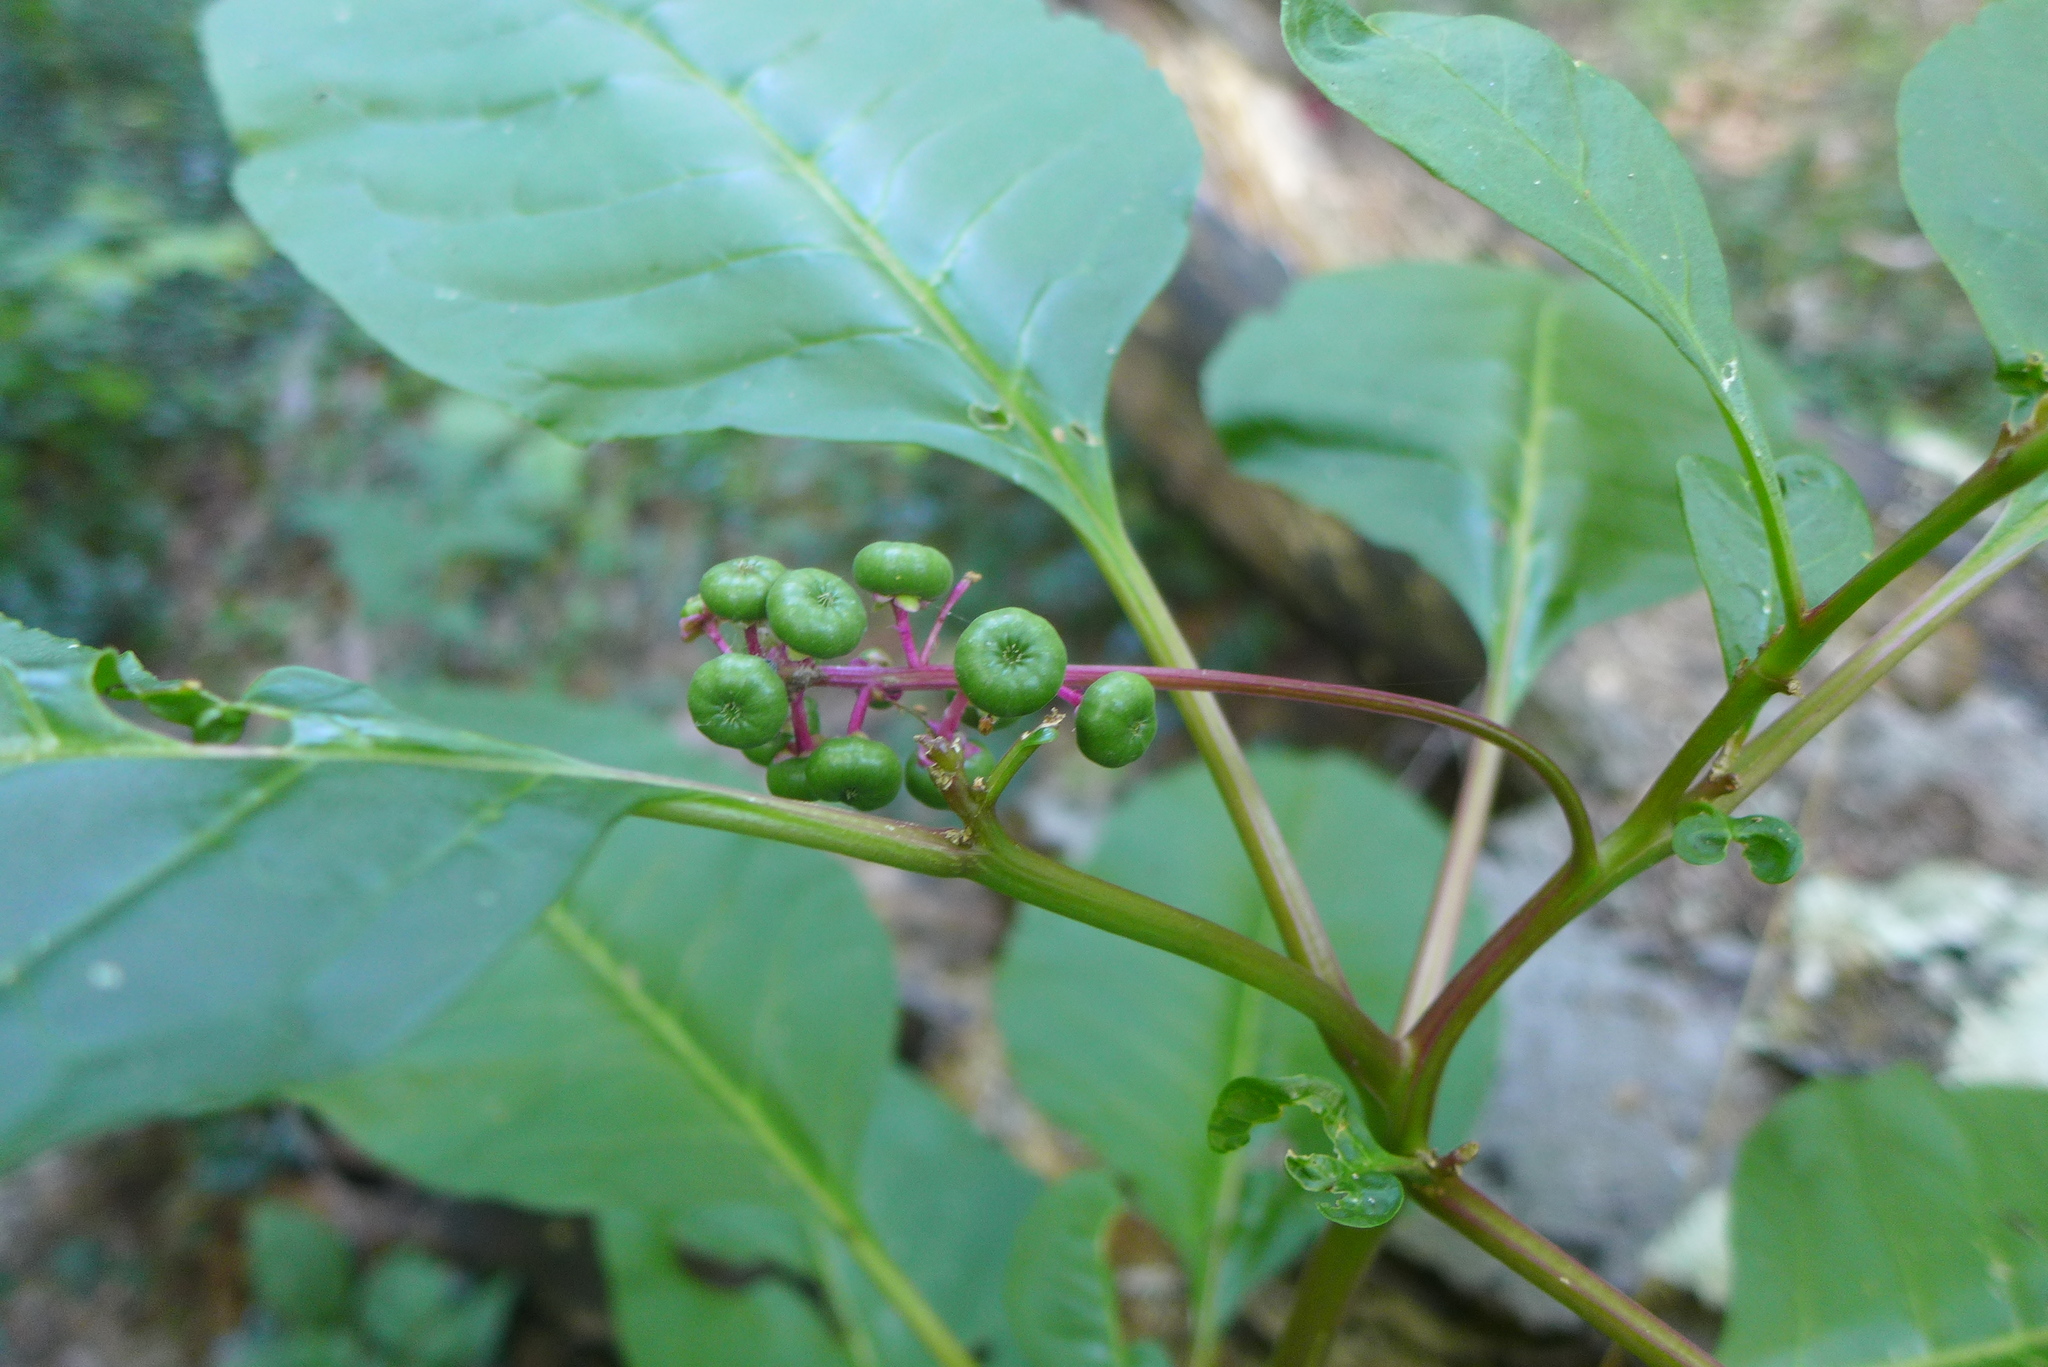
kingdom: Plantae
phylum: Tracheophyta
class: Magnoliopsida
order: Caryophyllales
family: Phytolaccaceae
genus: Phytolacca
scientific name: Phytolacca americana
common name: American pokeweed
